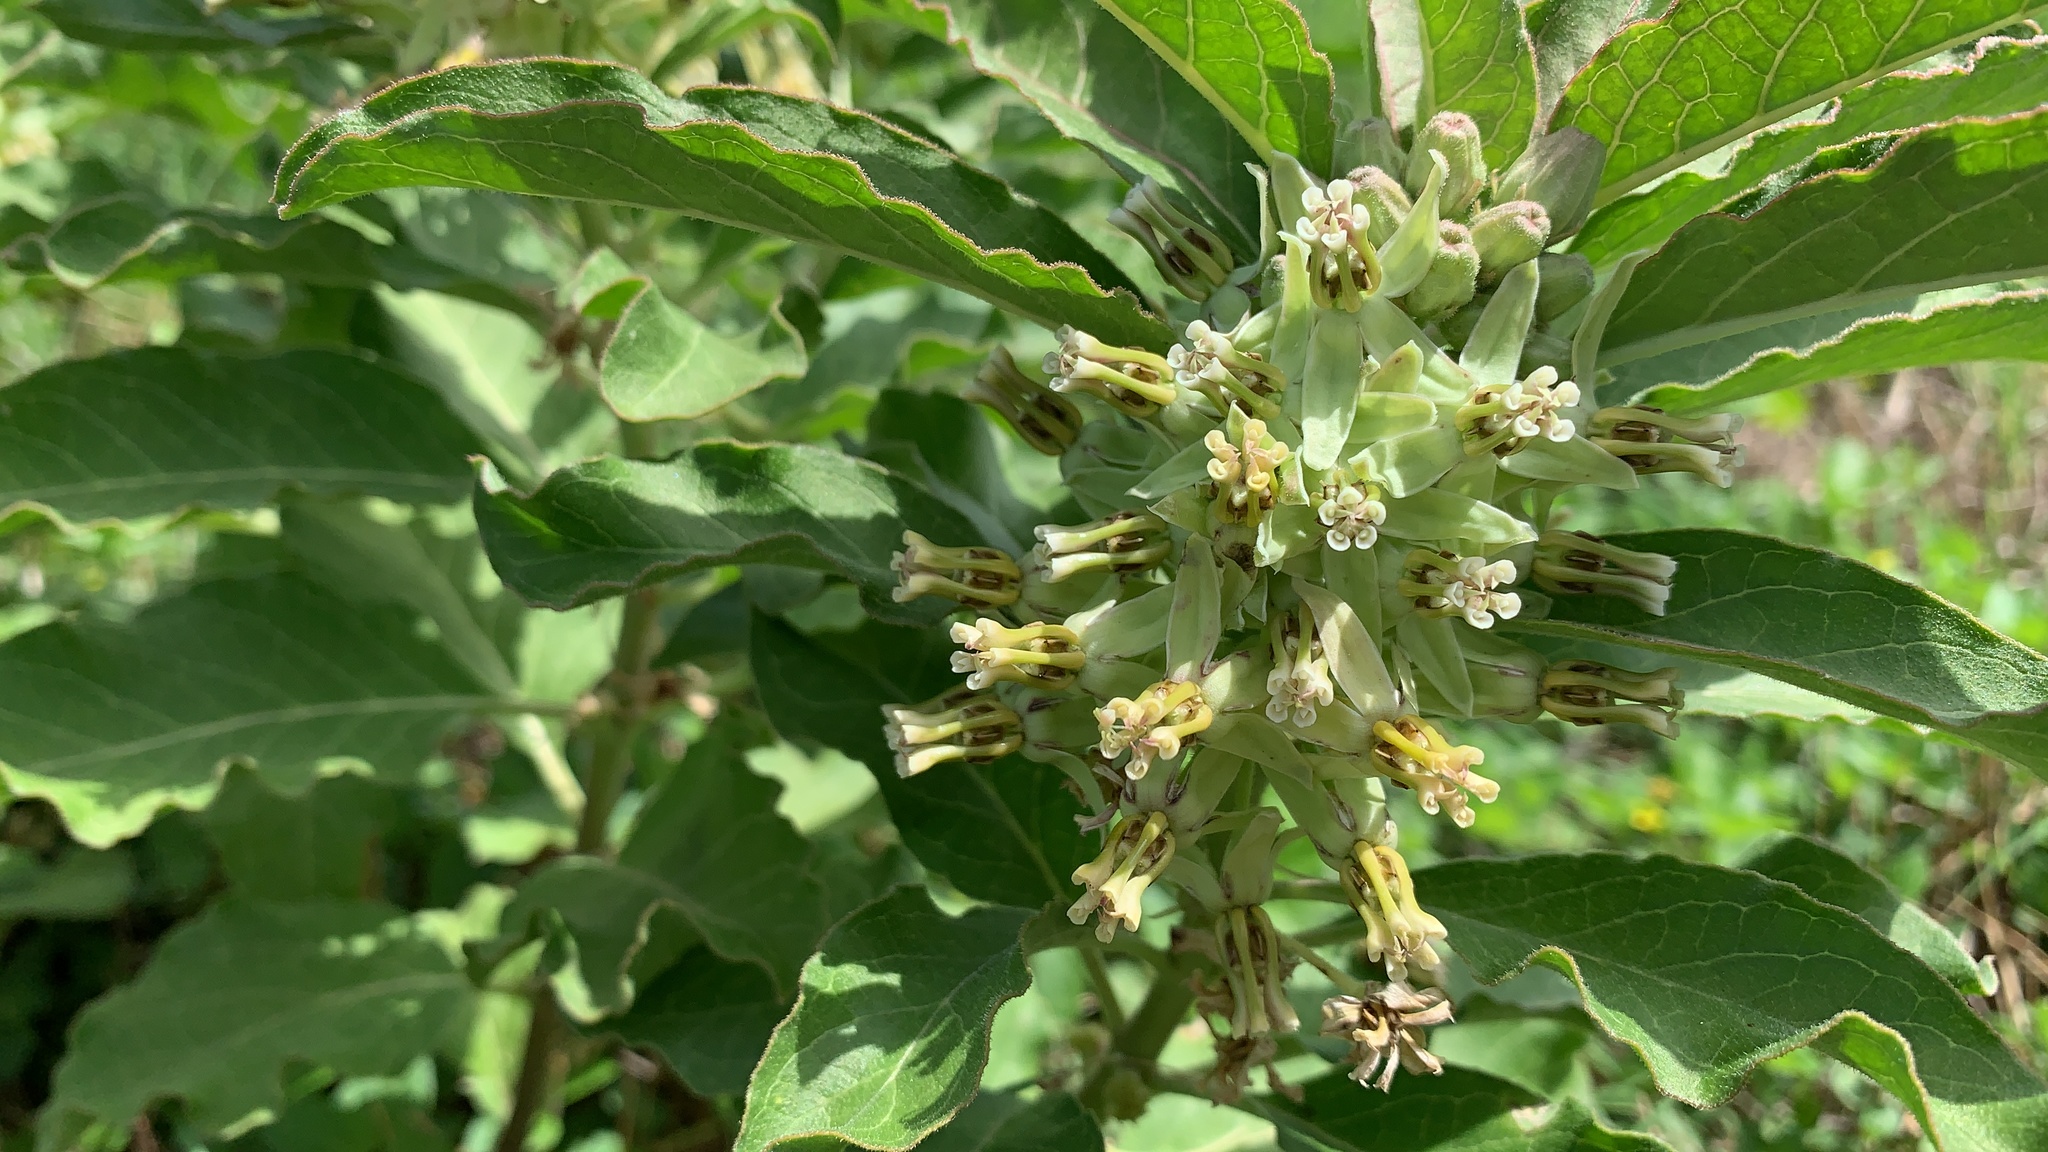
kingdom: Plantae
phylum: Tracheophyta
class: Magnoliopsida
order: Gentianales
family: Apocynaceae
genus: Asclepias
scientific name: Asclepias oenotheroides
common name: Zizotes milkweed
